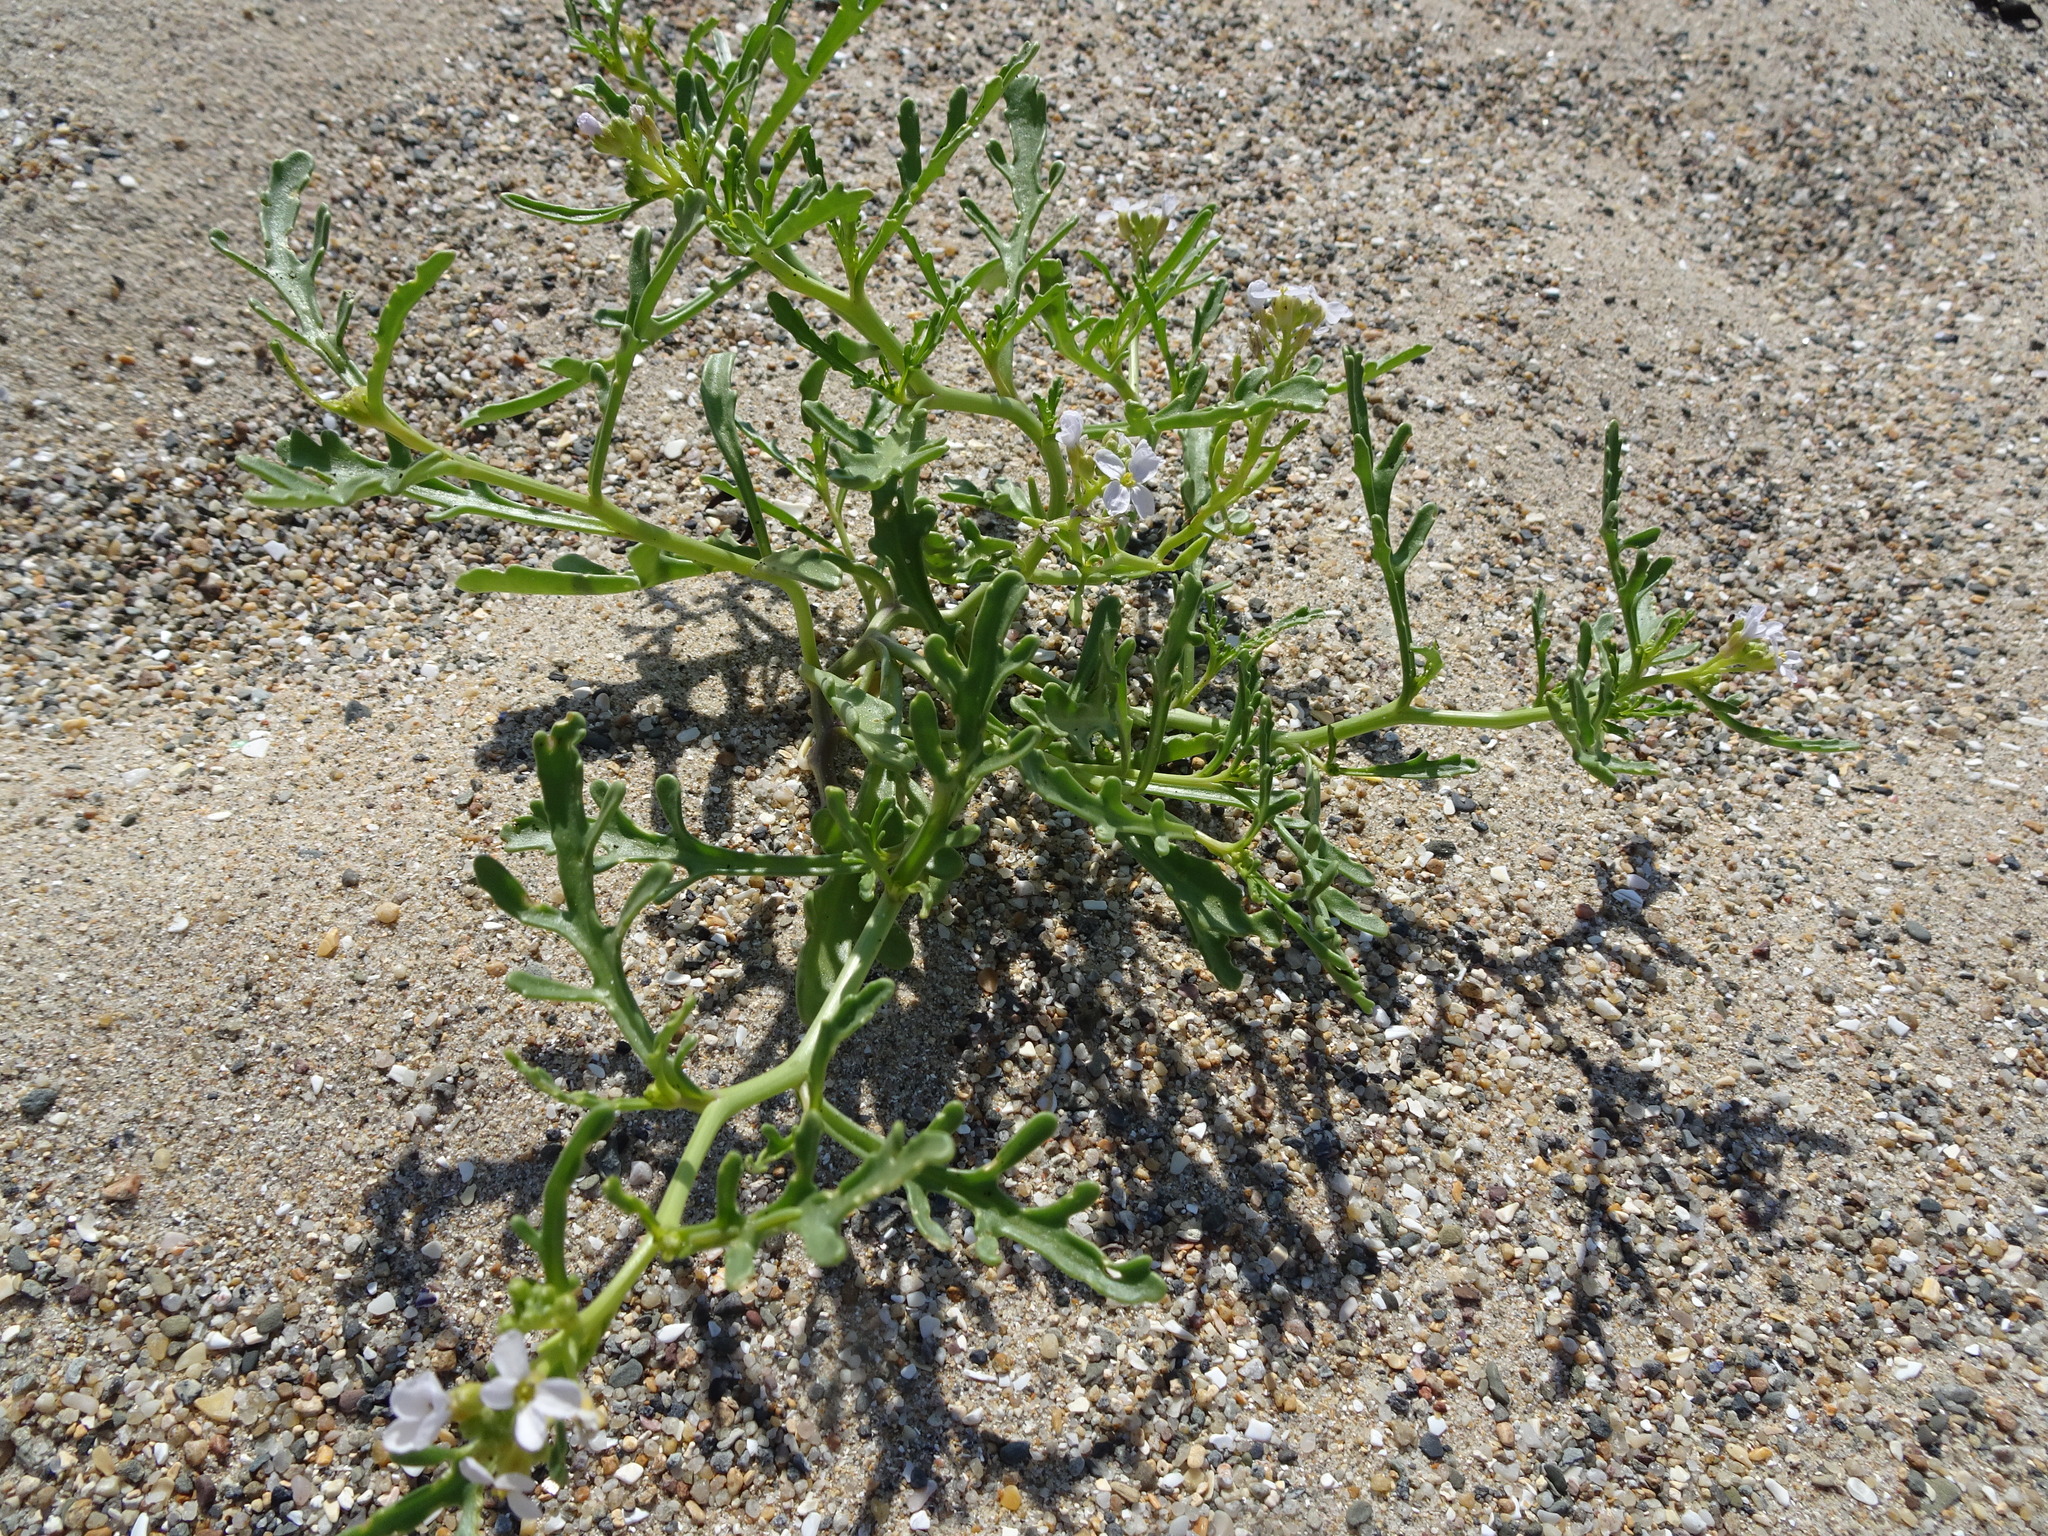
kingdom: Plantae
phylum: Tracheophyta
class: Magnoliopsida
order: Brassicales
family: Brassicaceae
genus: Cakile
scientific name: Cakile maritima
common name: Sea rocket
